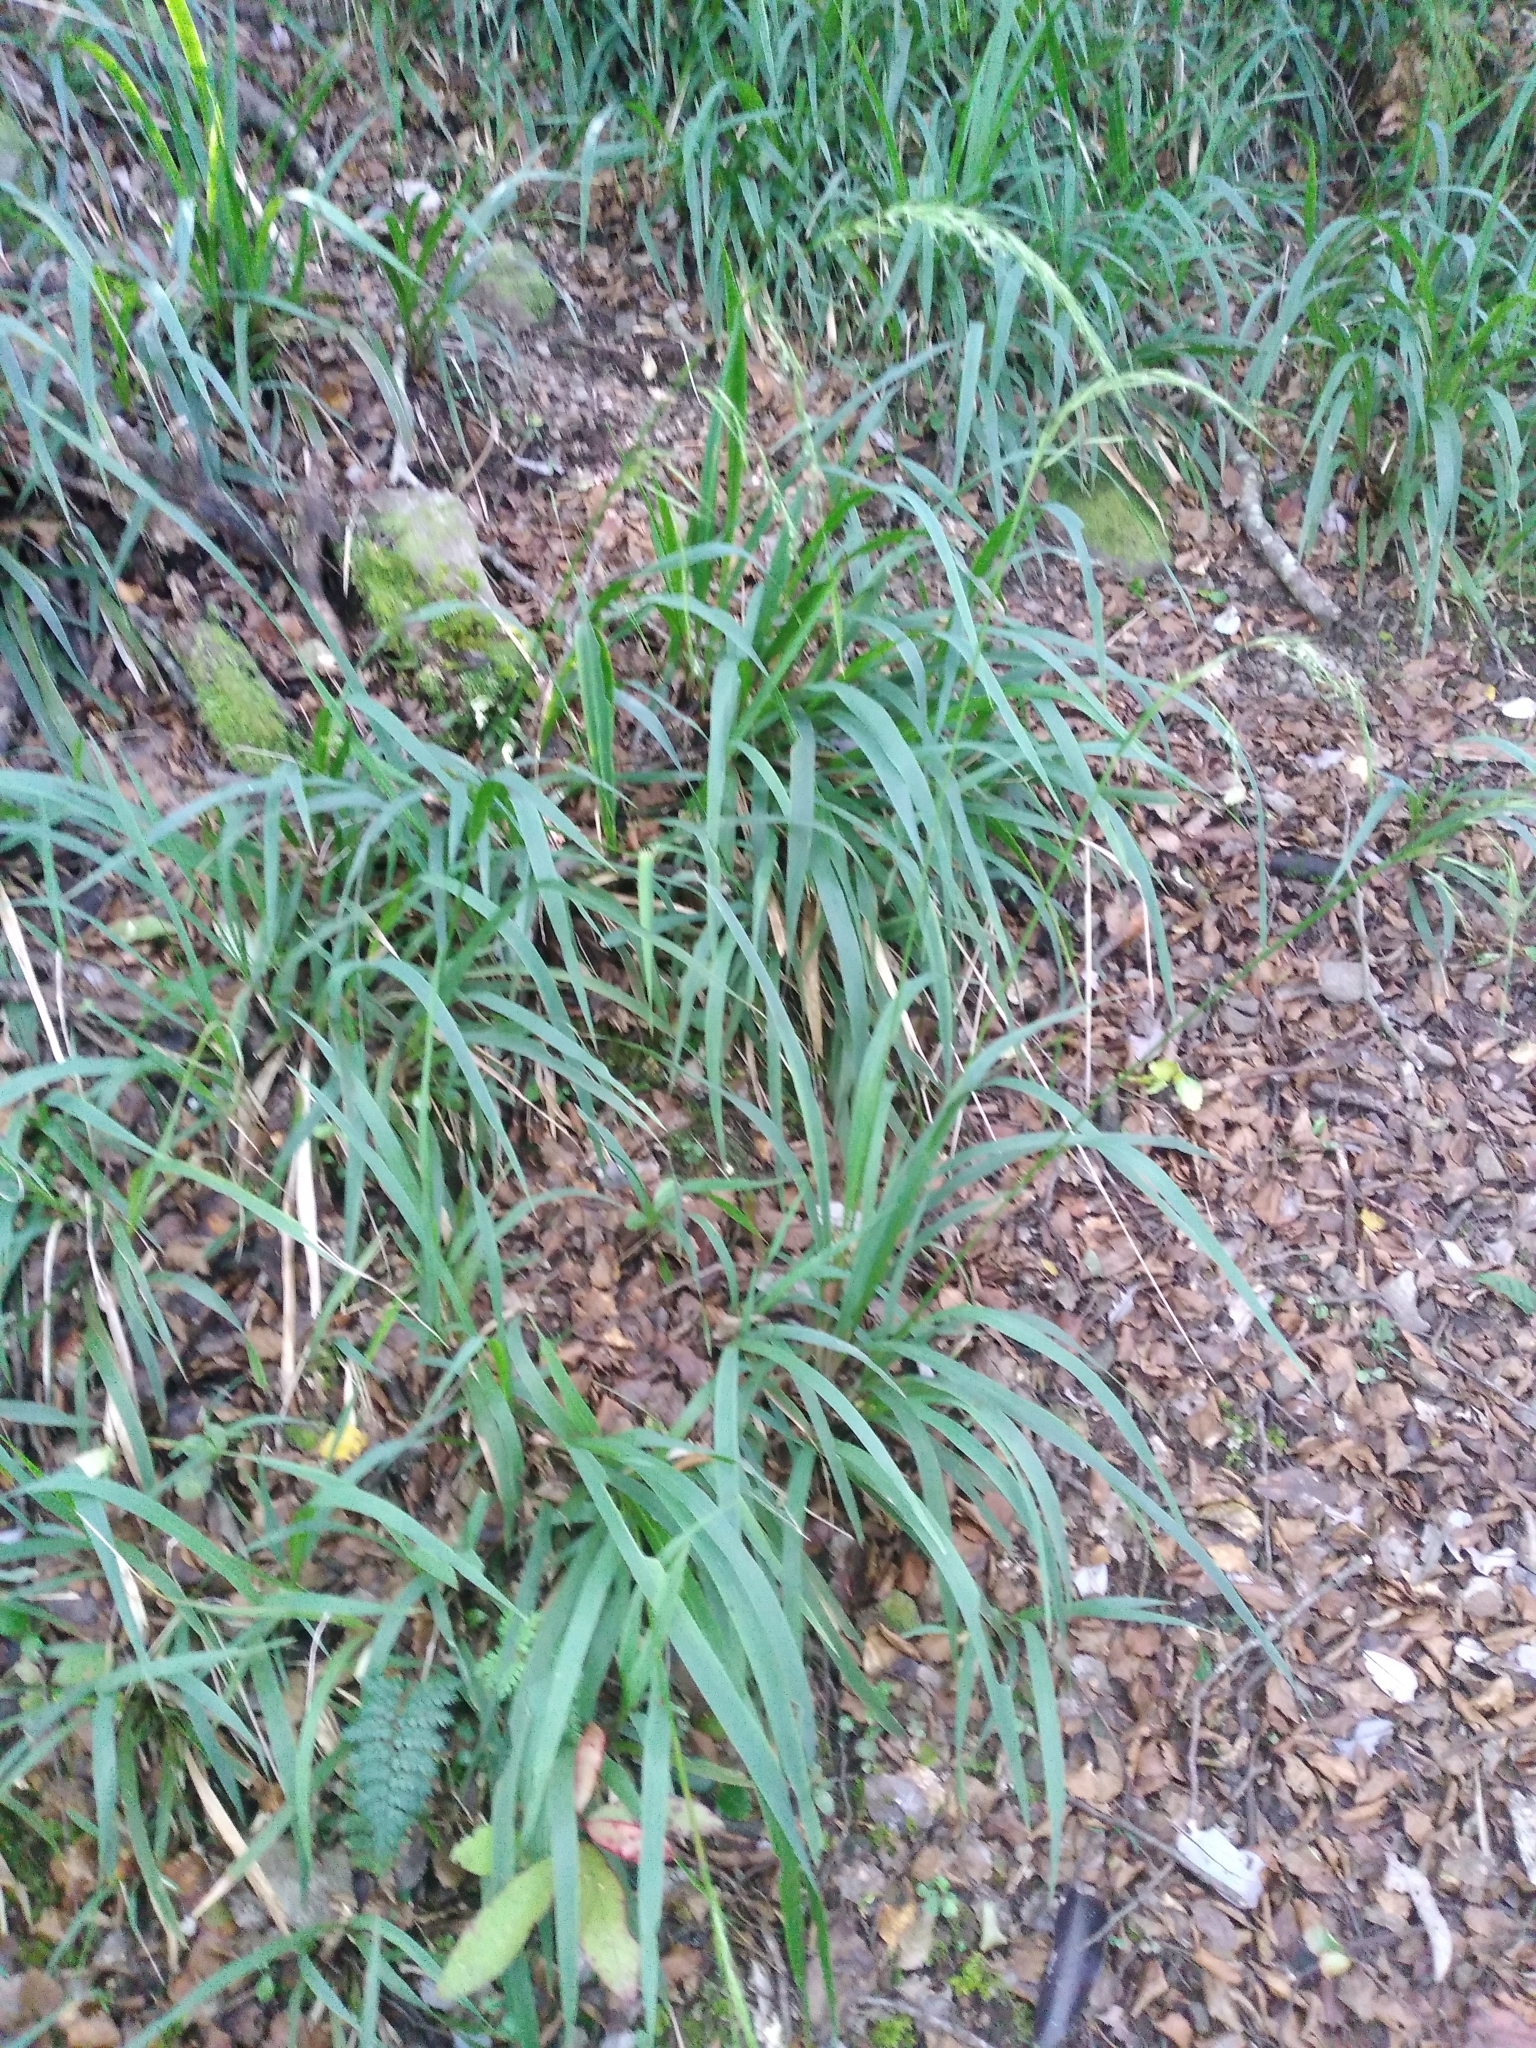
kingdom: Plantae
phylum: Tracheophyta
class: Liliopsida
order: Poales
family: Poaceae
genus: Ehrharta
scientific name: Ehrharta diplax
